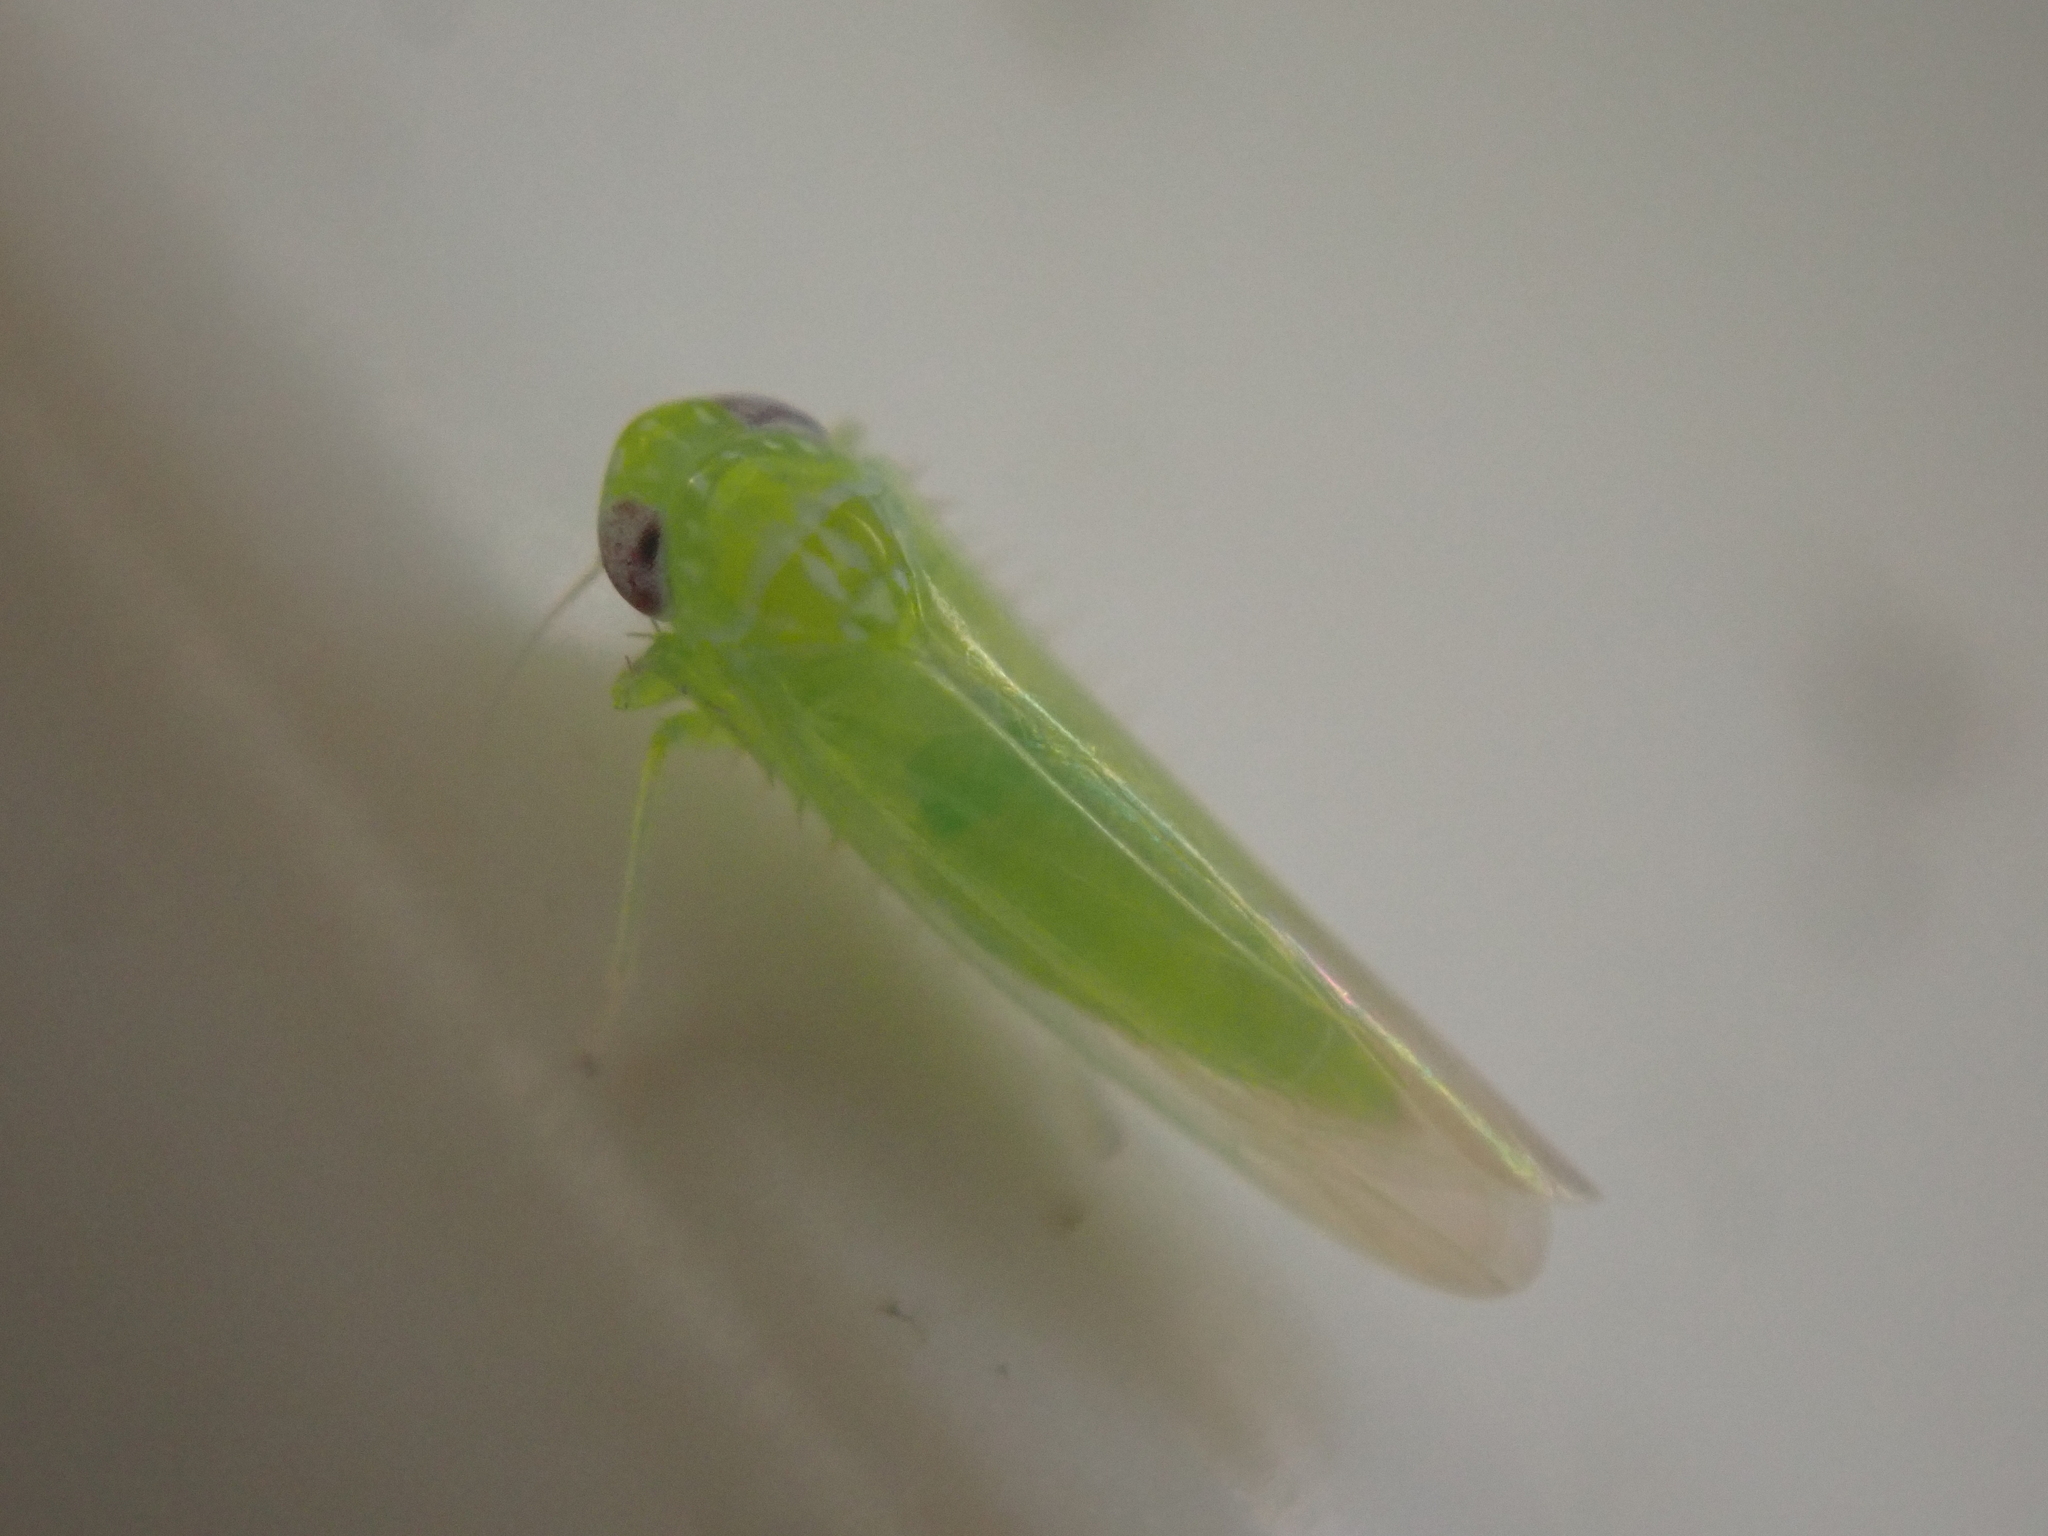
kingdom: Animalia
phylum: Arthropoda
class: Insecta
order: Hemiptera
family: Cicadellidae
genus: Empoasca
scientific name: Empoasca fabae
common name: Potato leafhopper
